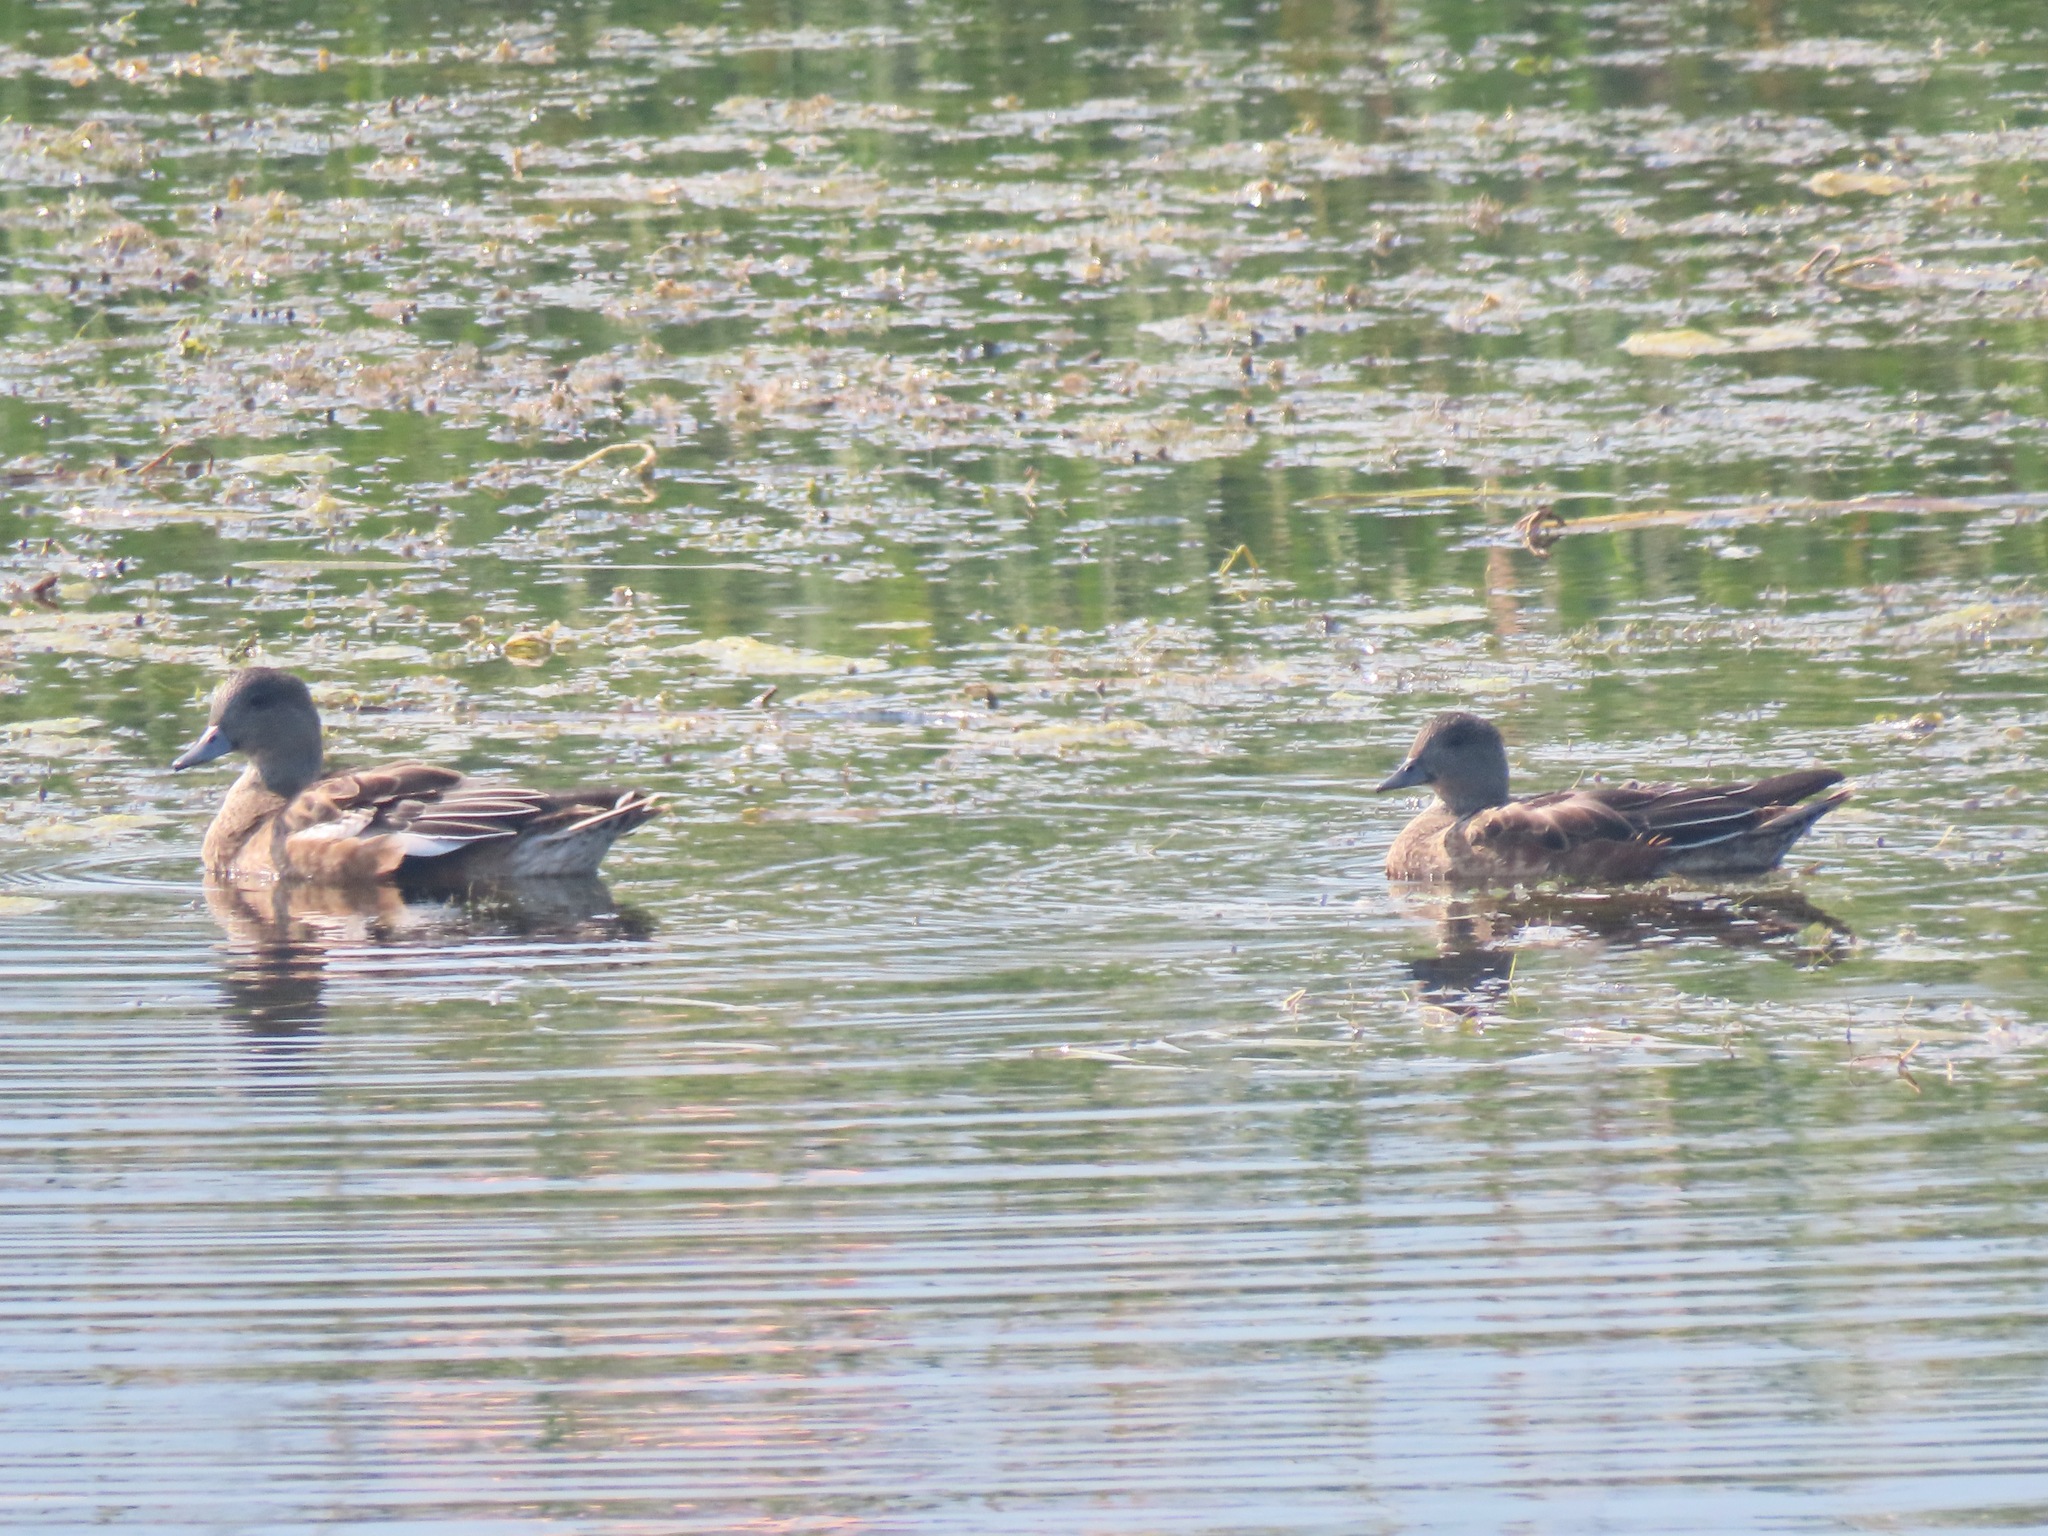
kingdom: Animalia
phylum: Chordata
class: Aves
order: Anseriformes
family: Anatidae
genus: Mareca
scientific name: Mareca americana
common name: American wigeon
